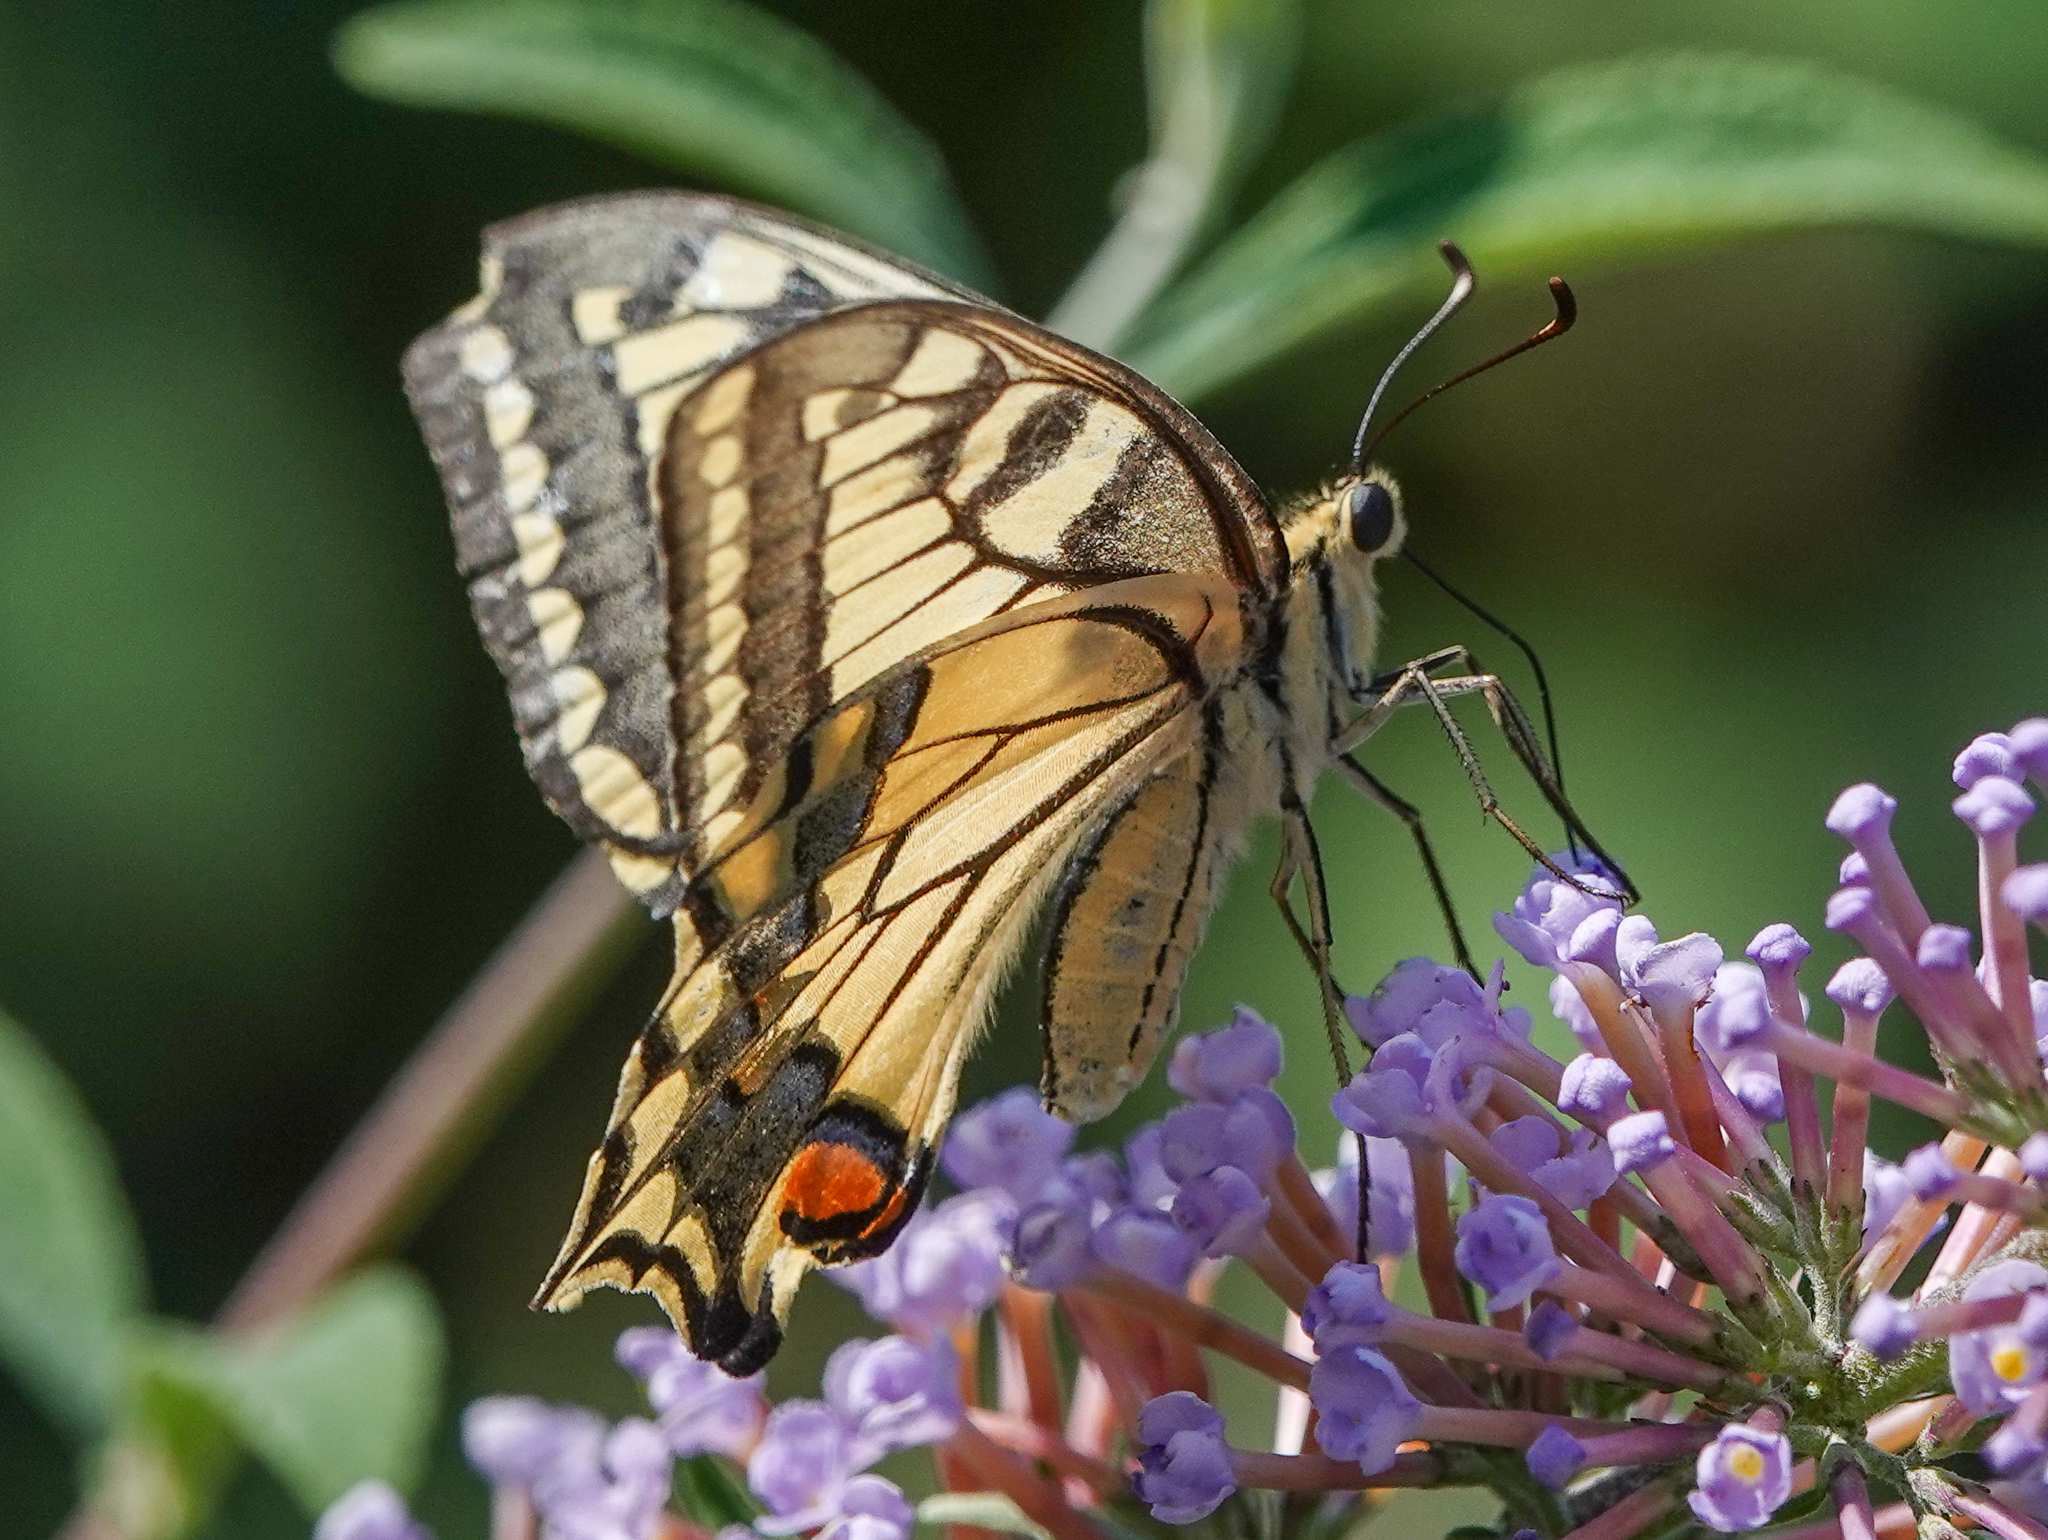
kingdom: Animalia
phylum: Arthropoda
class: Insecta
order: Lepidoptera
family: Papilionidae
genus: Papilio
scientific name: Papilio machaon
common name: Swallowtail
